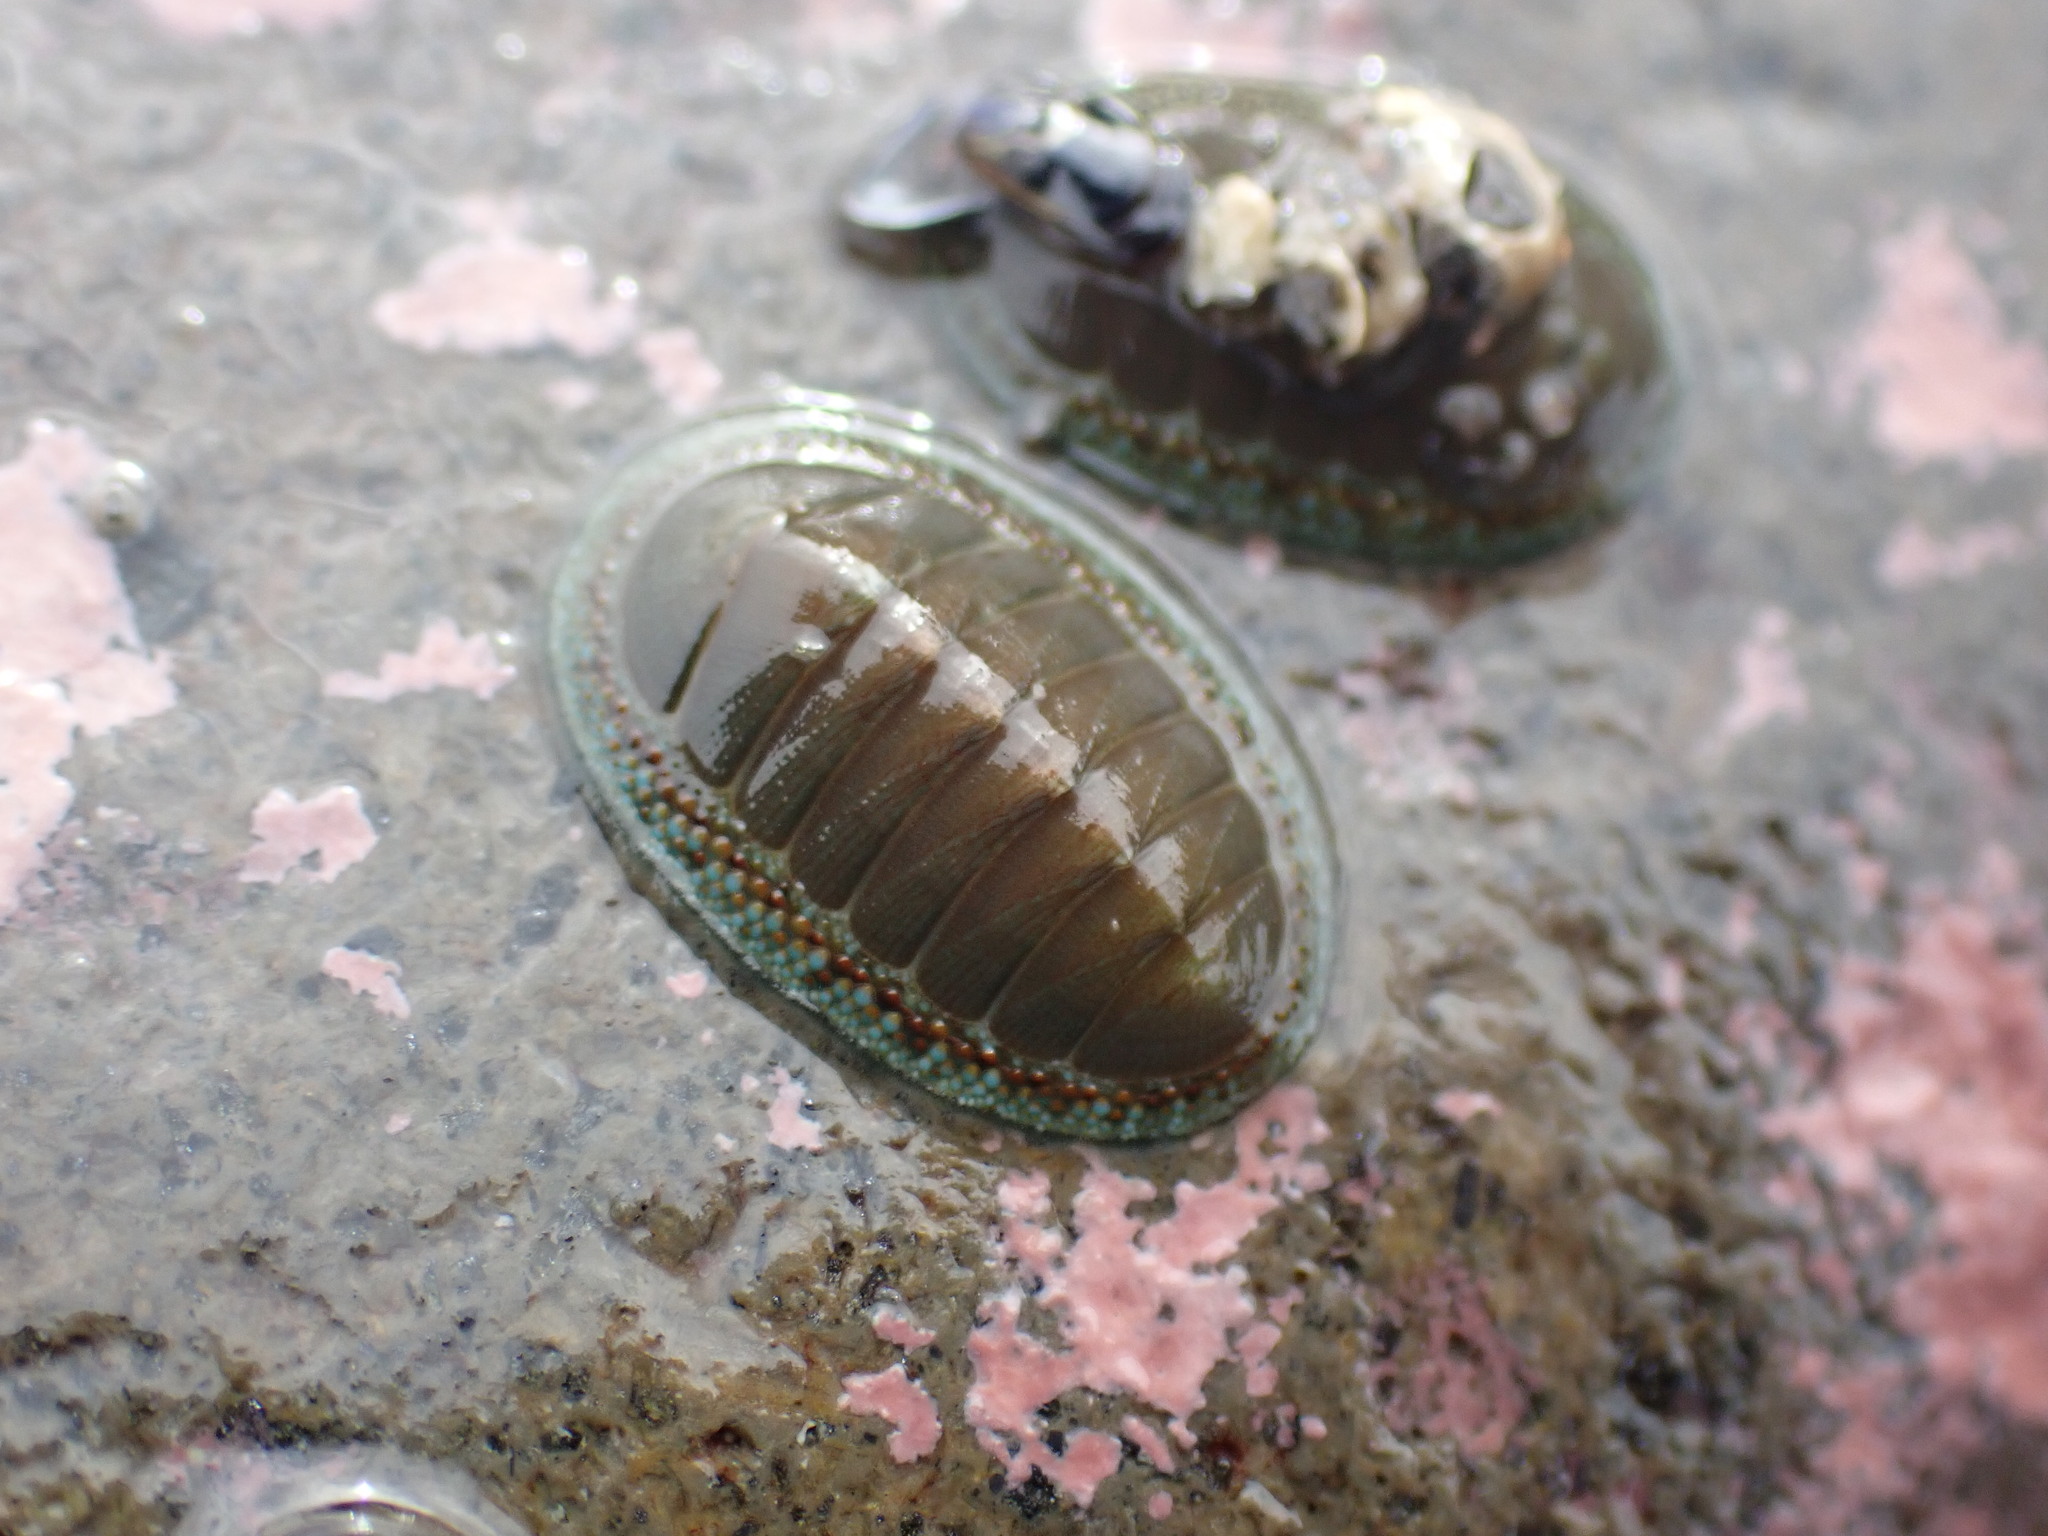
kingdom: Animalia
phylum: Mollusca
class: Polyplacophora
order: Chitonida
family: Chitonidae
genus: Chiton
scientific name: Chiton glaucus
